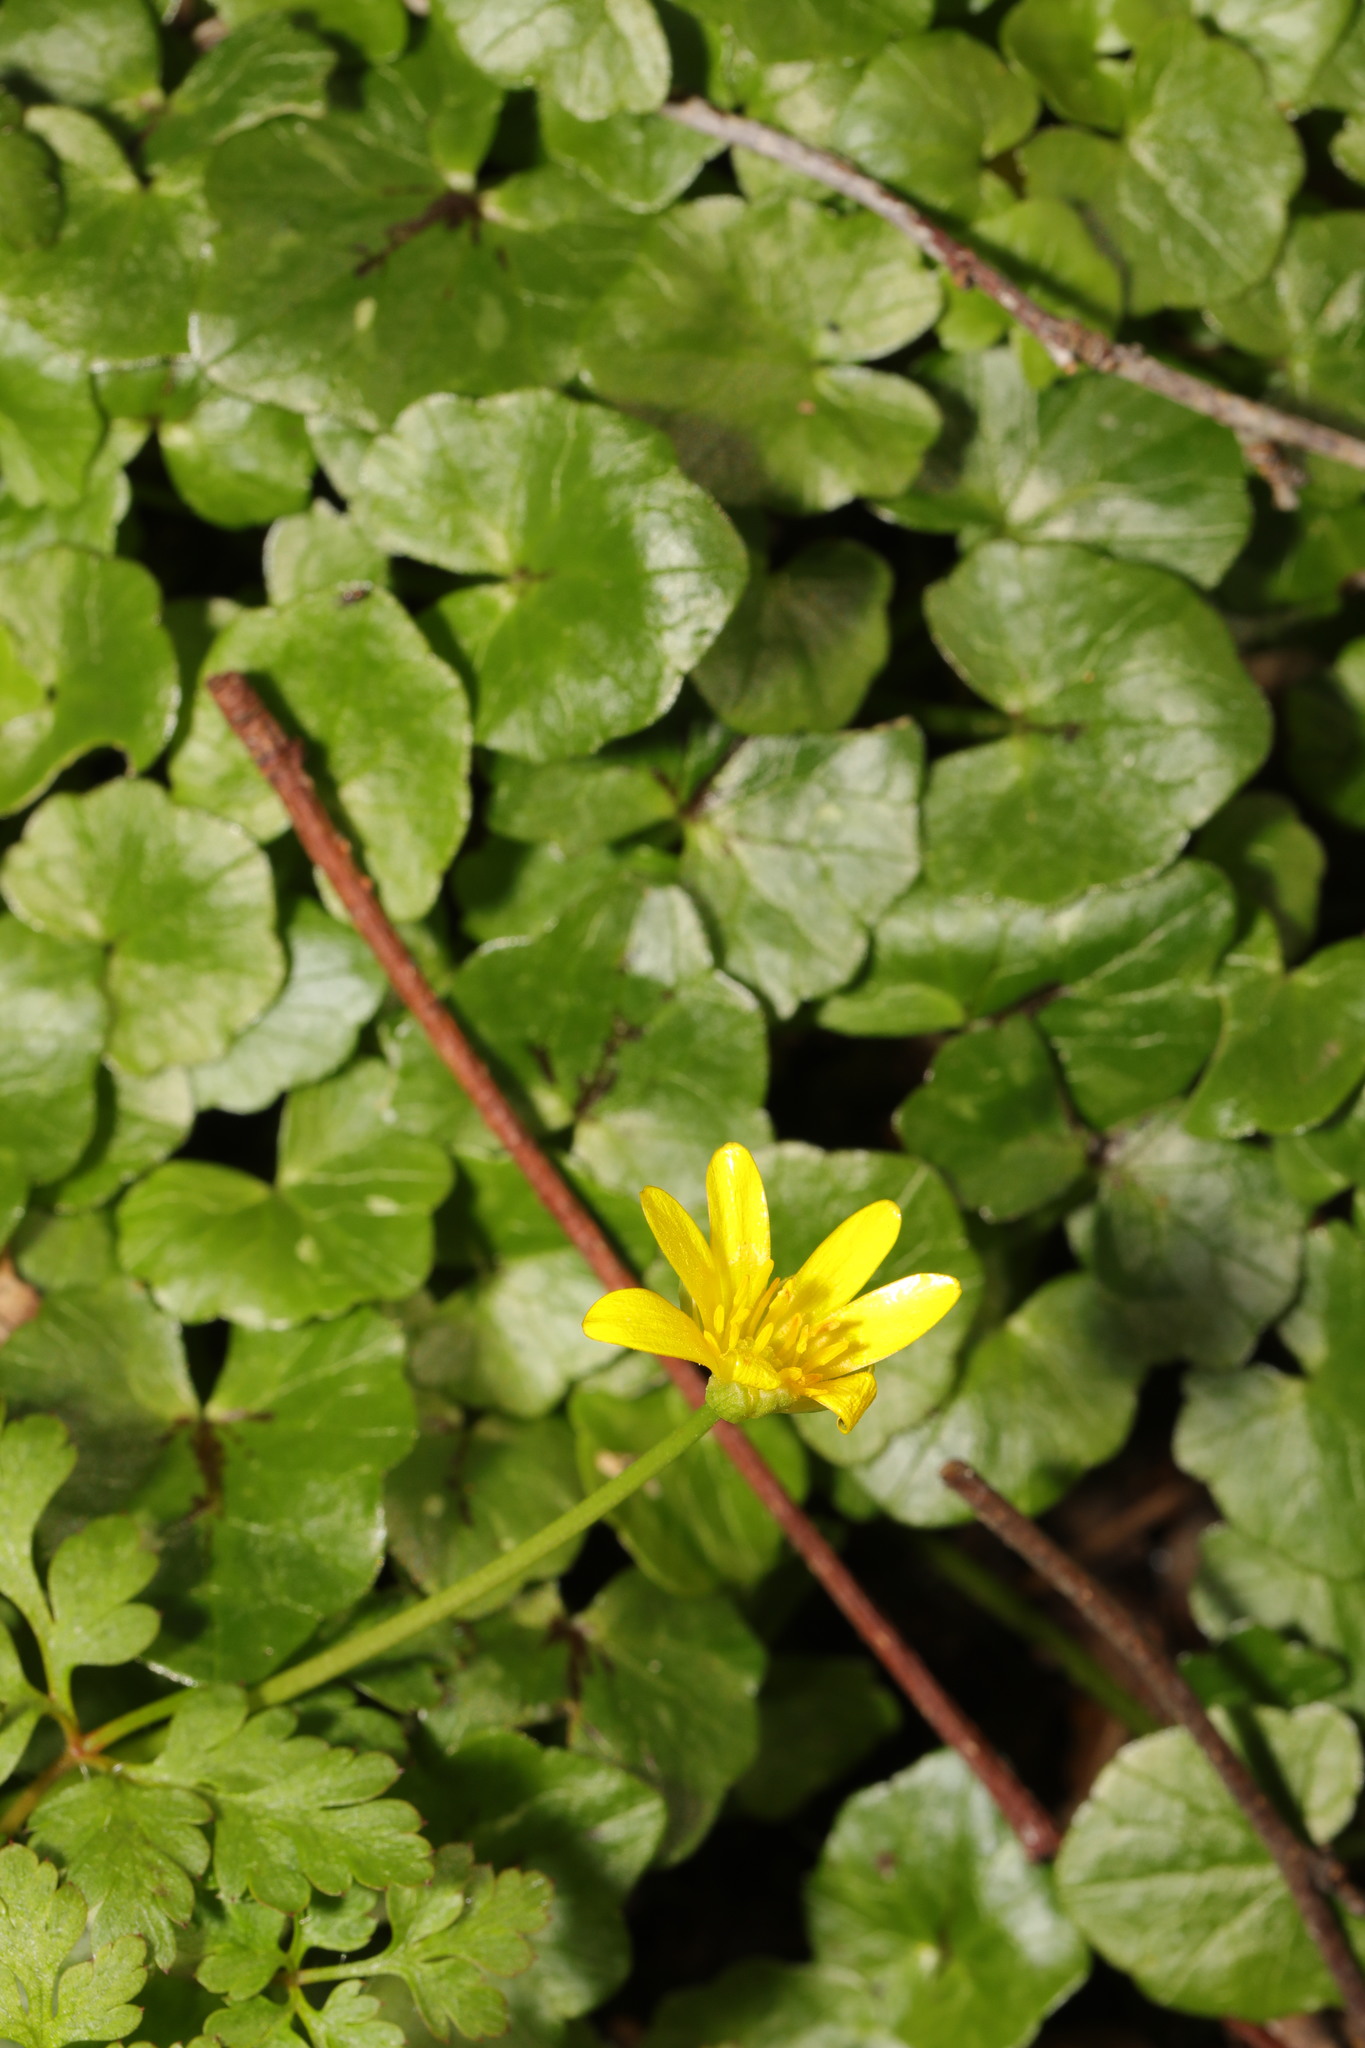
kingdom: Plantae
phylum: Tracheophyta
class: Magnoliopsida
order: Ranunculales
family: Ranunculaceae
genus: Ficaria
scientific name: Ficaria verna
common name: Lesser celandine
